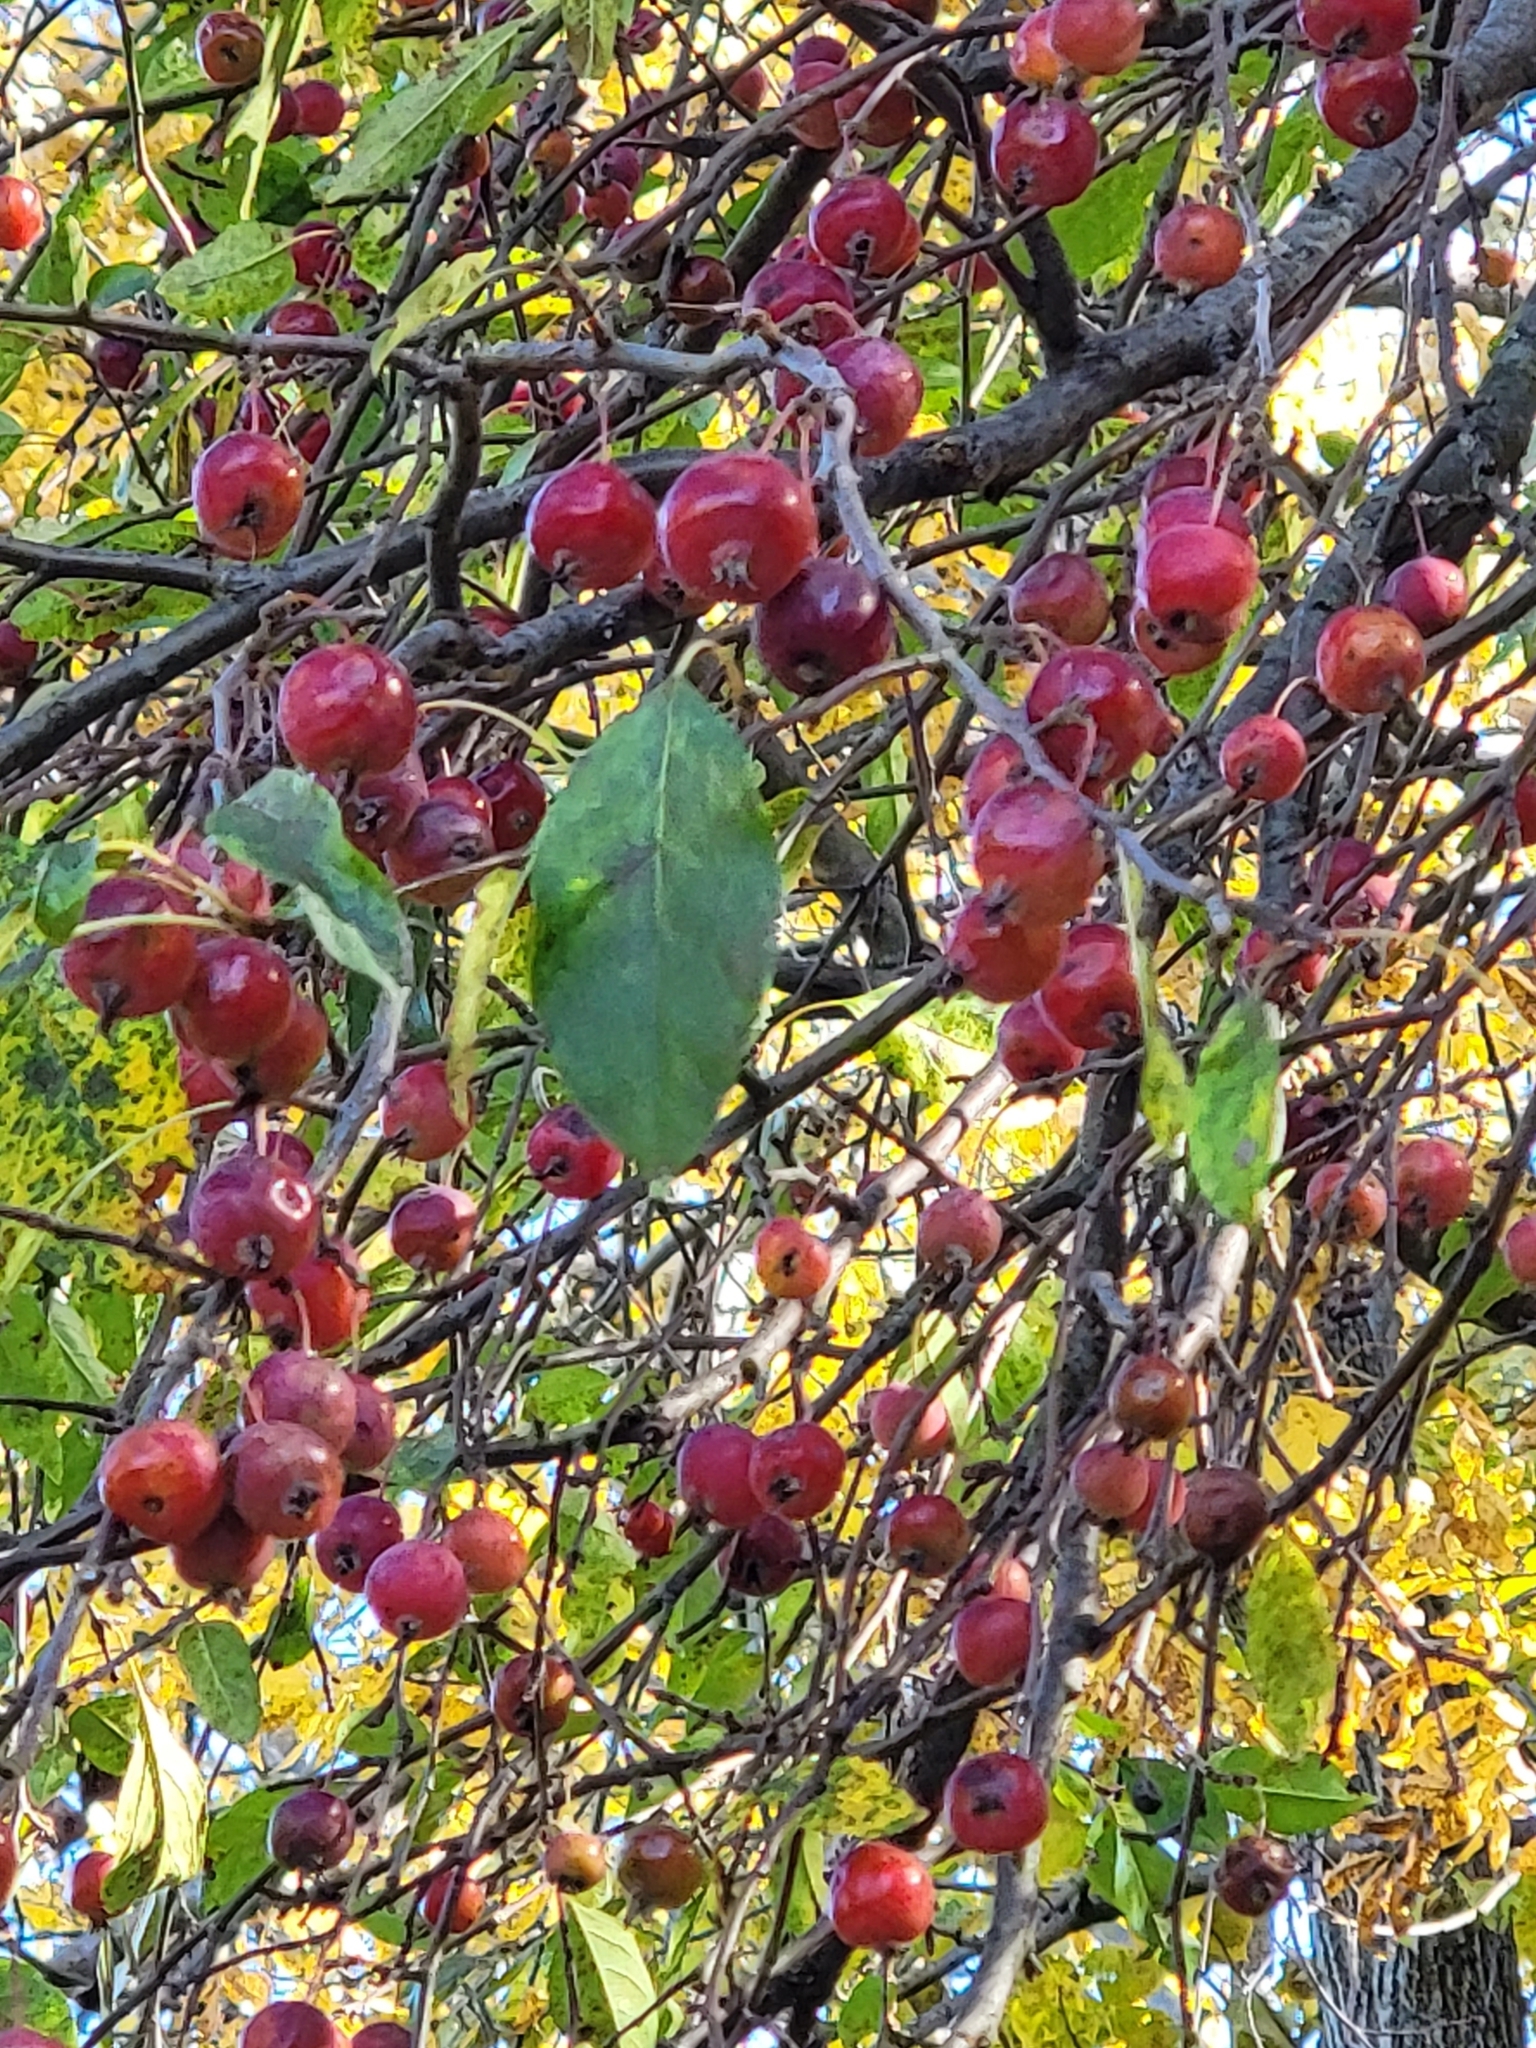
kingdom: Plantae
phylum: Tracheophyta
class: Magnoliopsida
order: Rosales
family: Rosaceae
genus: Malus
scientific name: Malus baccata
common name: Siberian crab
